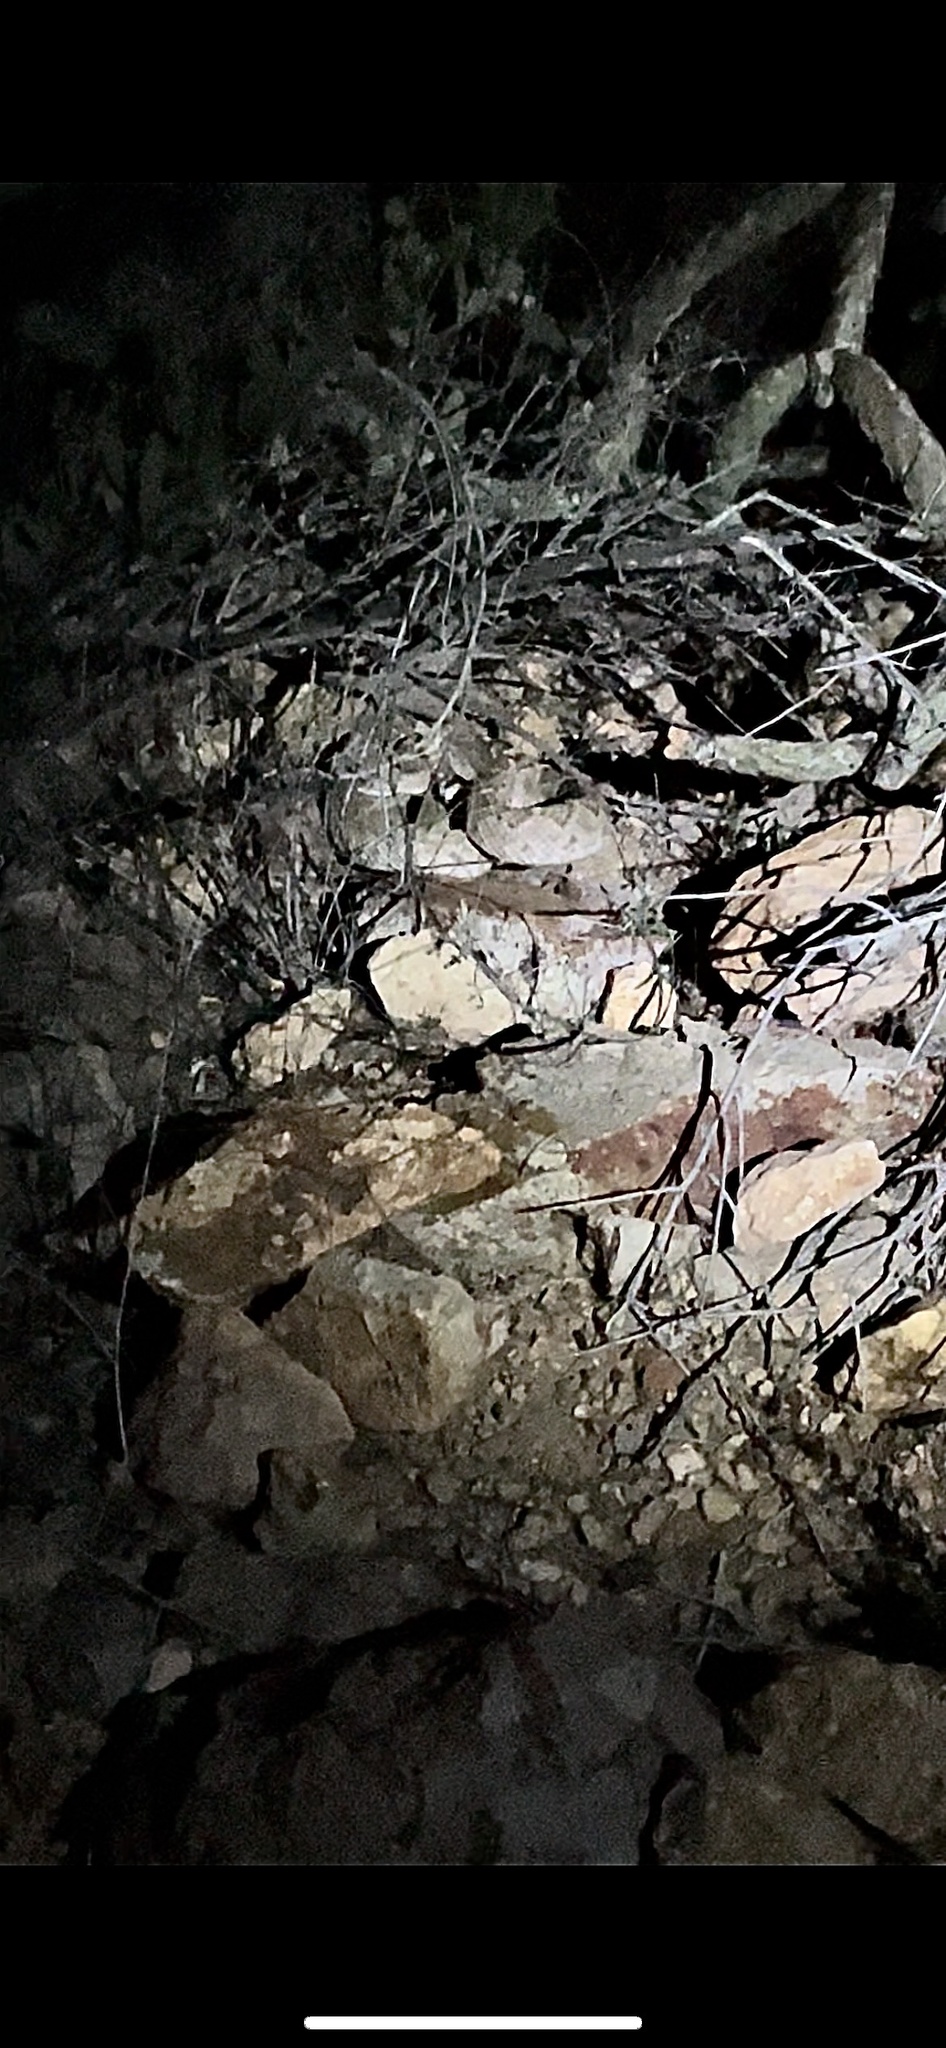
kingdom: Animalia
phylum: Chordata
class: Squamata
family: Viperidae
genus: Crotalus
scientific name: Crotalus atrox
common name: Western diamond-backed rattlesnake
